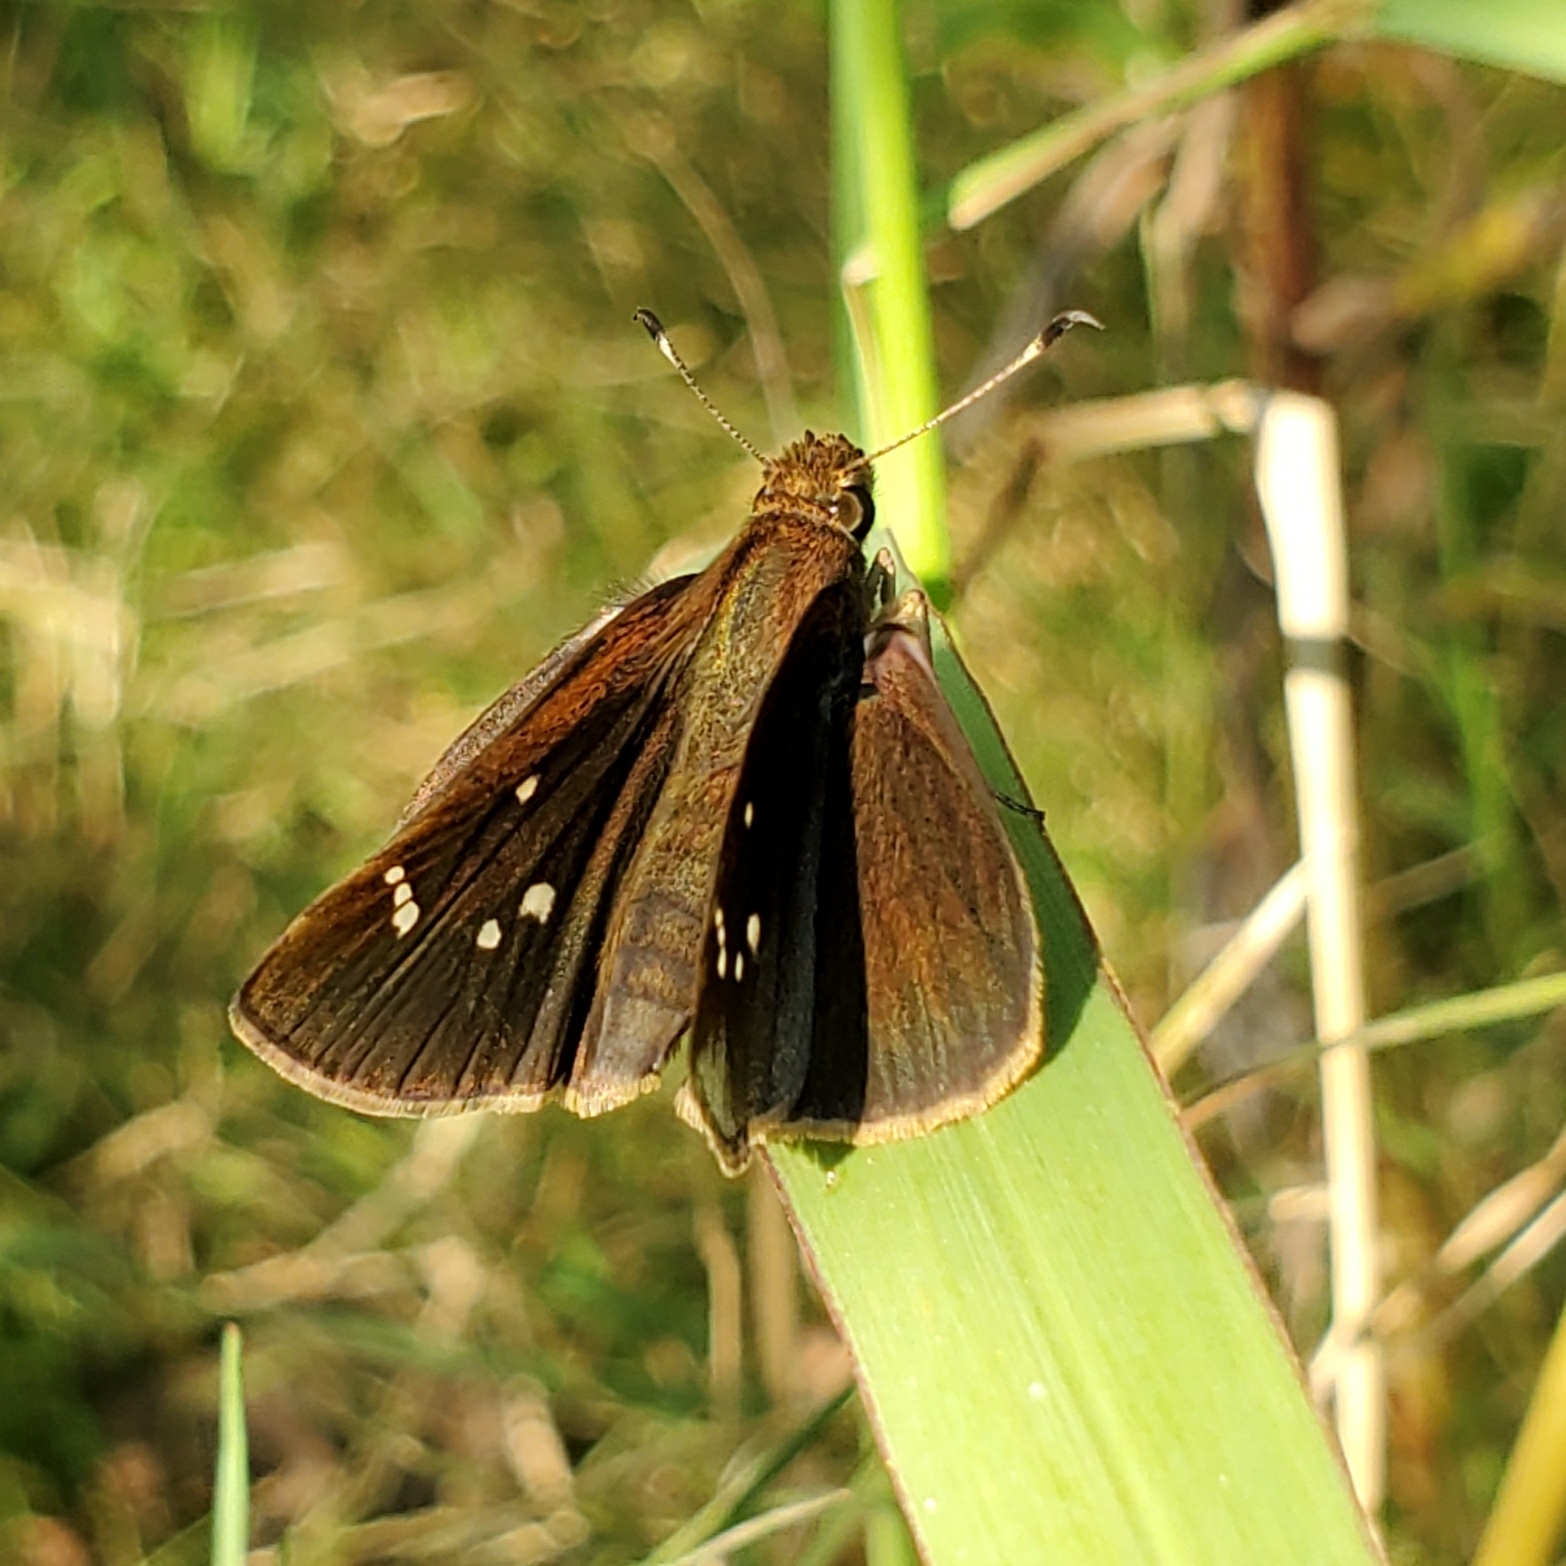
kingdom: Animalia
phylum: Arthropoda
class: Insecta
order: Lepidoptera
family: Hesperiidae
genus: Lerema
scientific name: Lerema accius
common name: Clouded skipper
